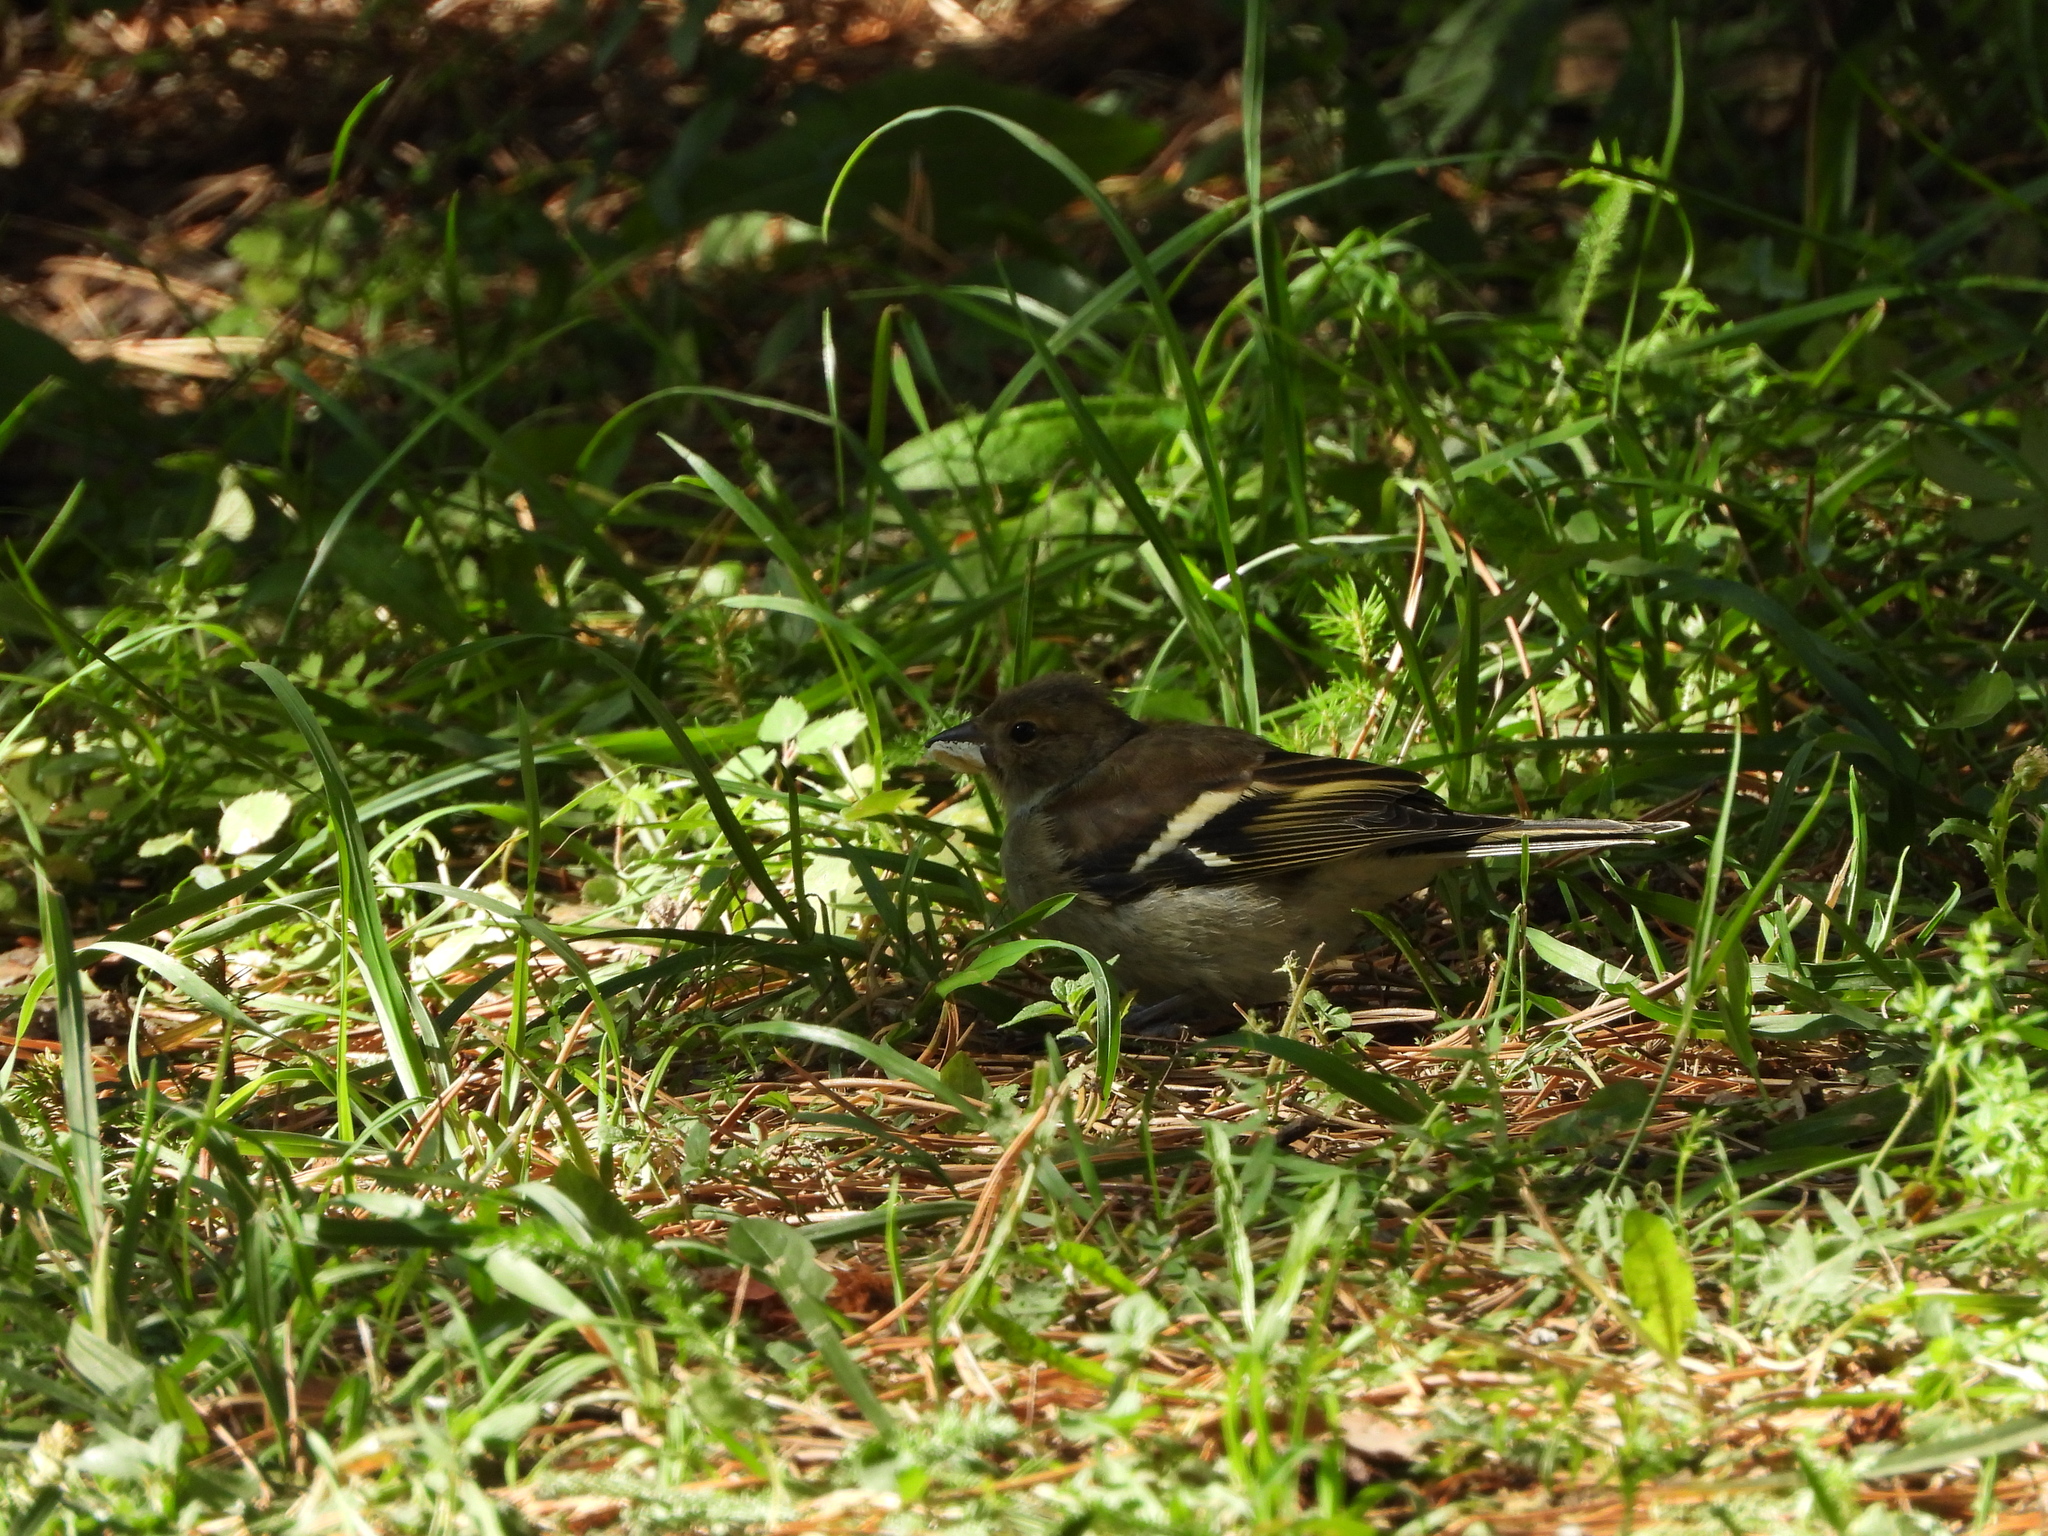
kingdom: Animalia
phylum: Chordata
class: Aves
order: Passeriformes
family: Fringillidae
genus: Fringilla
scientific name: Fringilla coelebs
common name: Common chaffinch
